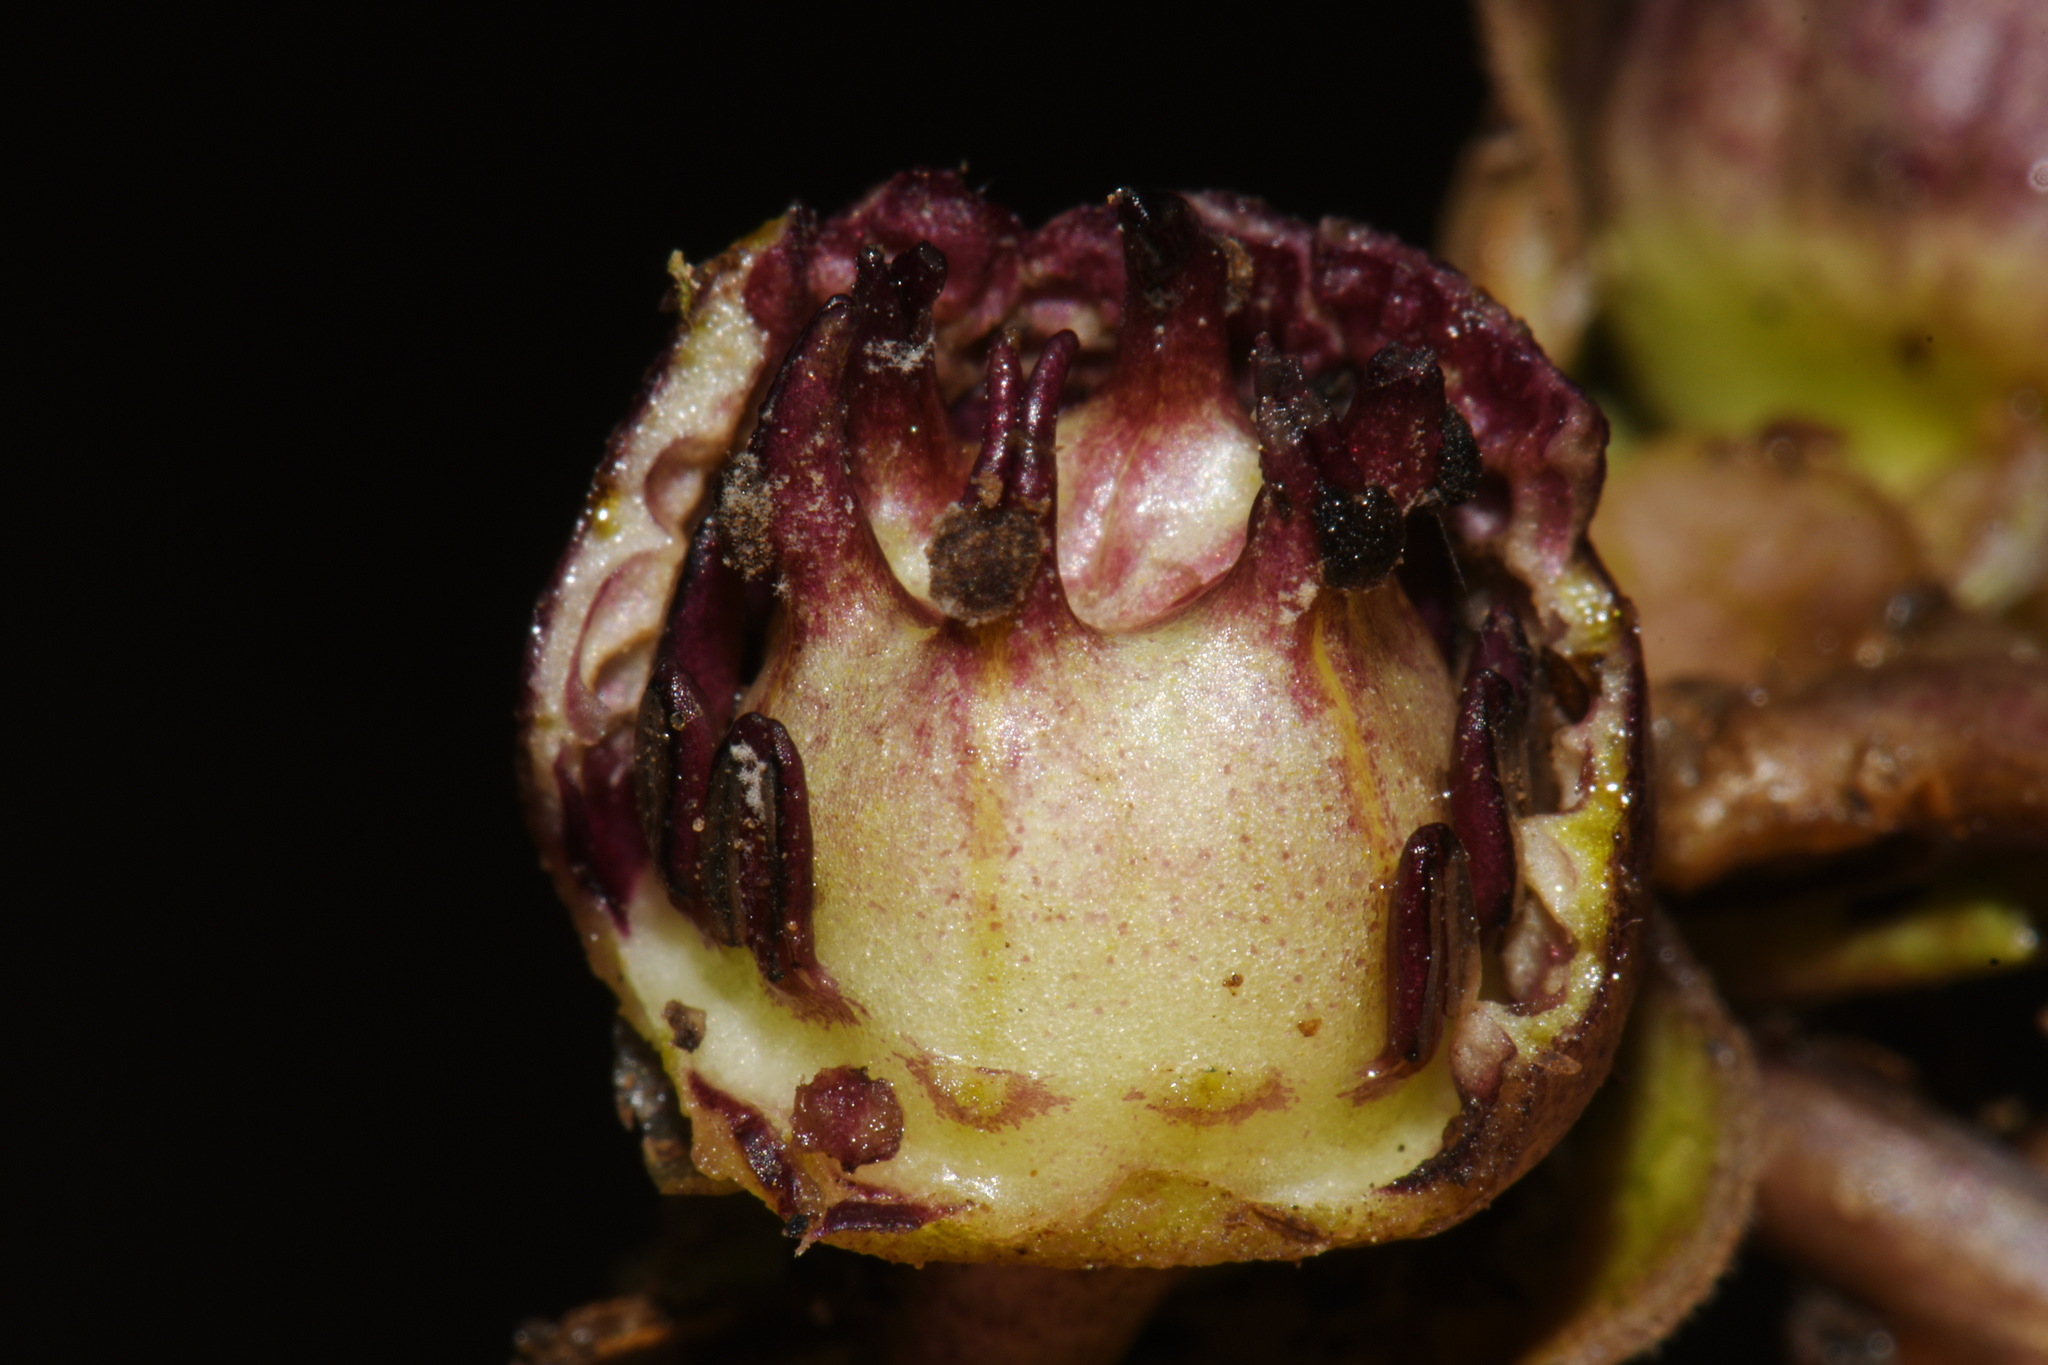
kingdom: Plantae
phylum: Tracheophyta
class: Magnoliopsida
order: Piperales
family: Aristolochiaceae
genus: Hexastylis
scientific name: Hexastylis heterophylla
